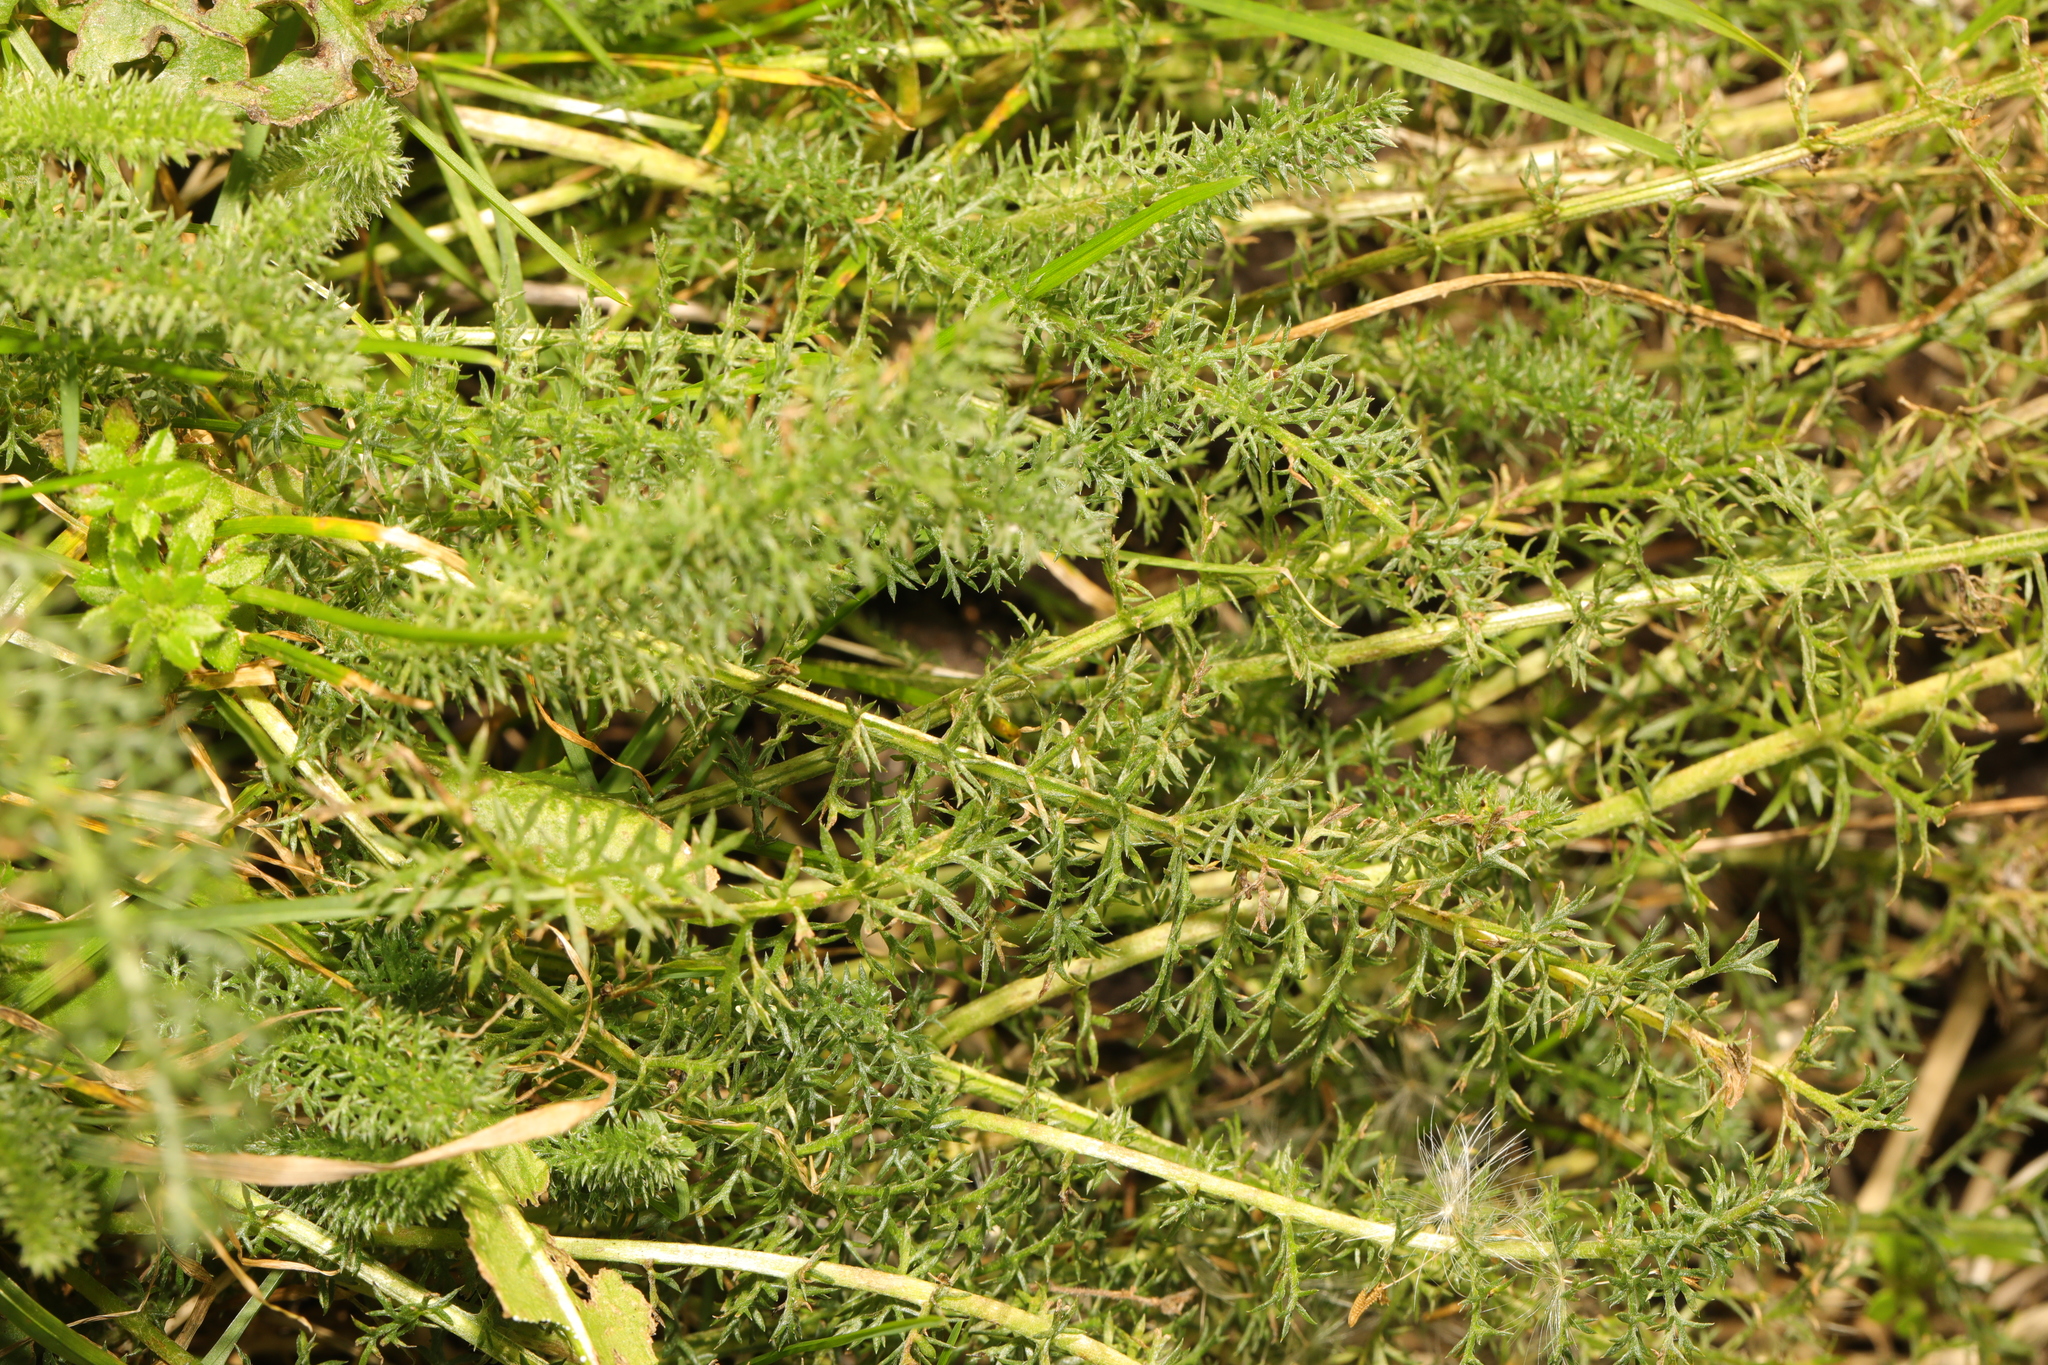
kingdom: Plantae
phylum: Tracheophyta
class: Magnoliopsida
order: Asterales
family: Asteraceae
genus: Achillea
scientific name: Achillea millefolium
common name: Yarrow
